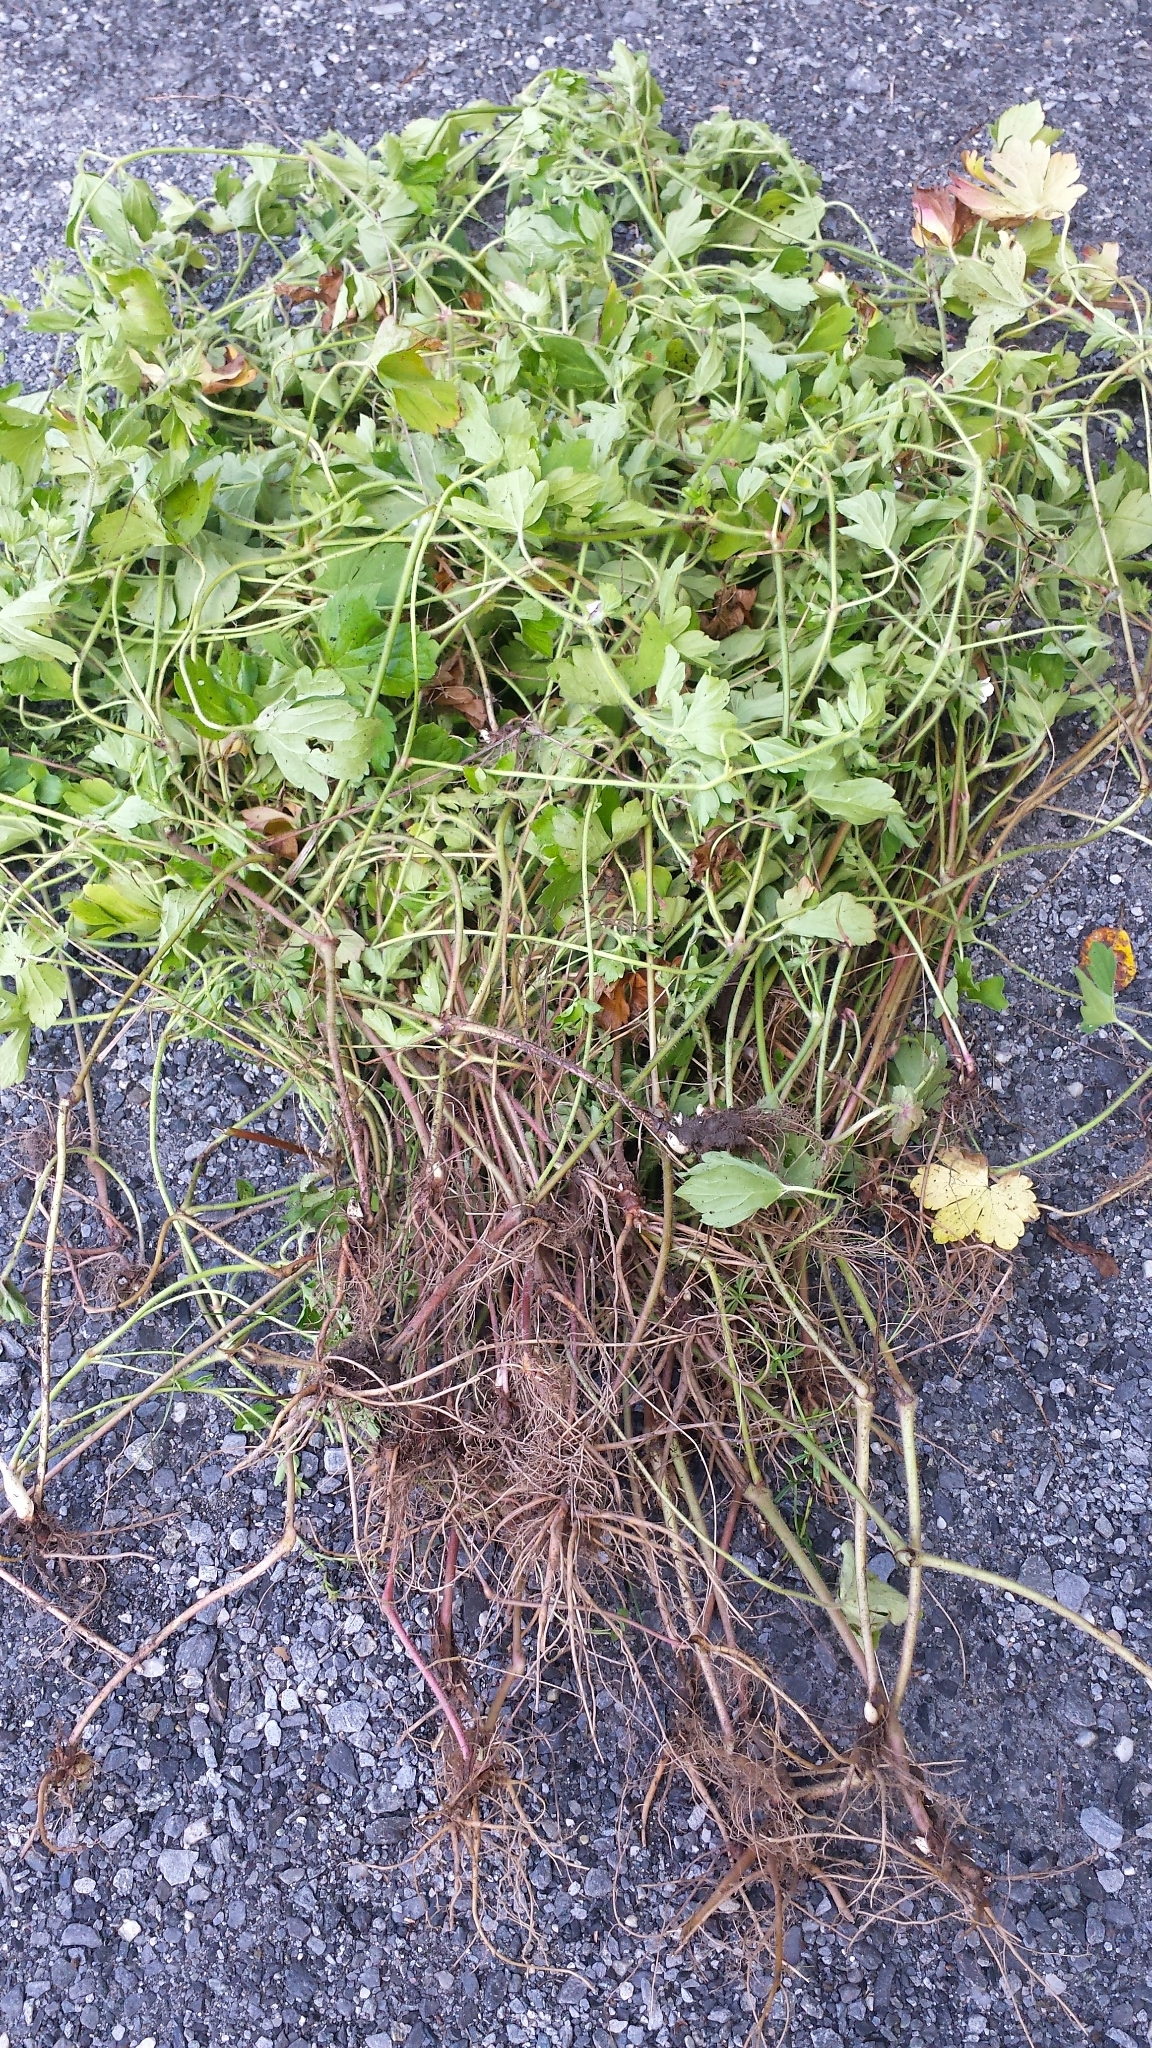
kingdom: Plantae
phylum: Tracheophyta
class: Magnoliopsida
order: Geraniales
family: Geraniaceae
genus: Geranium
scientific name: Geranium thunbergii
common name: Dewdrop crane's-bill
